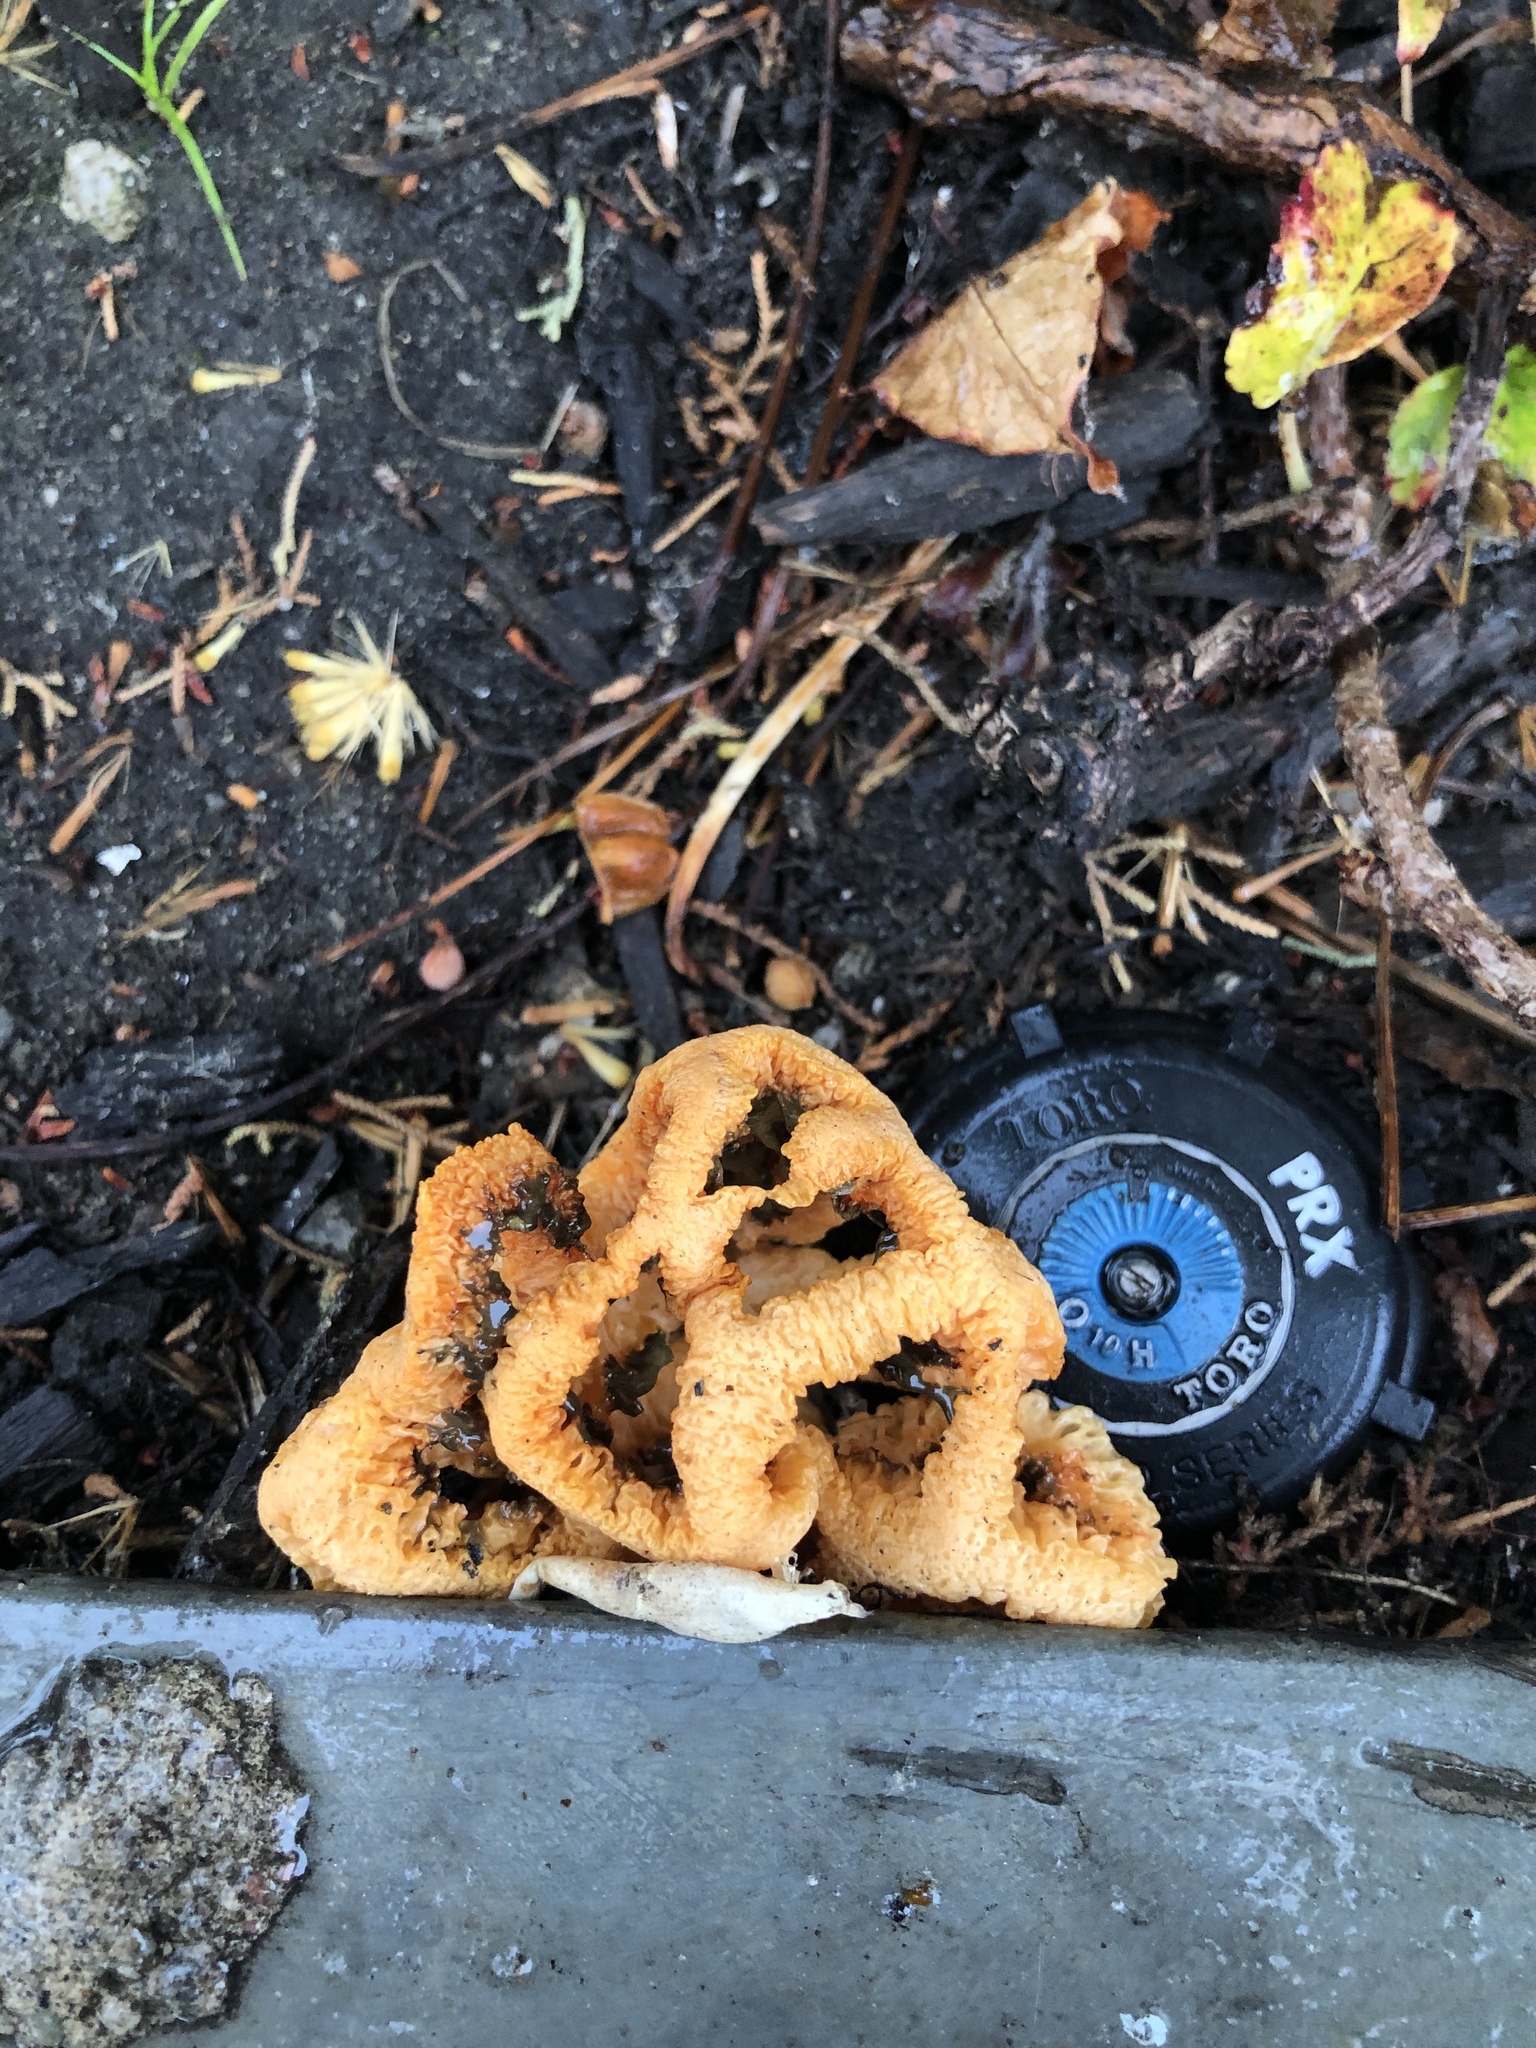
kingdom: Fungi
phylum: Basidiomycota
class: Agaricomycetes
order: Phallales
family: Phallaceae
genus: Clathrus
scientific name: Clathrus ruber
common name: Red cage
